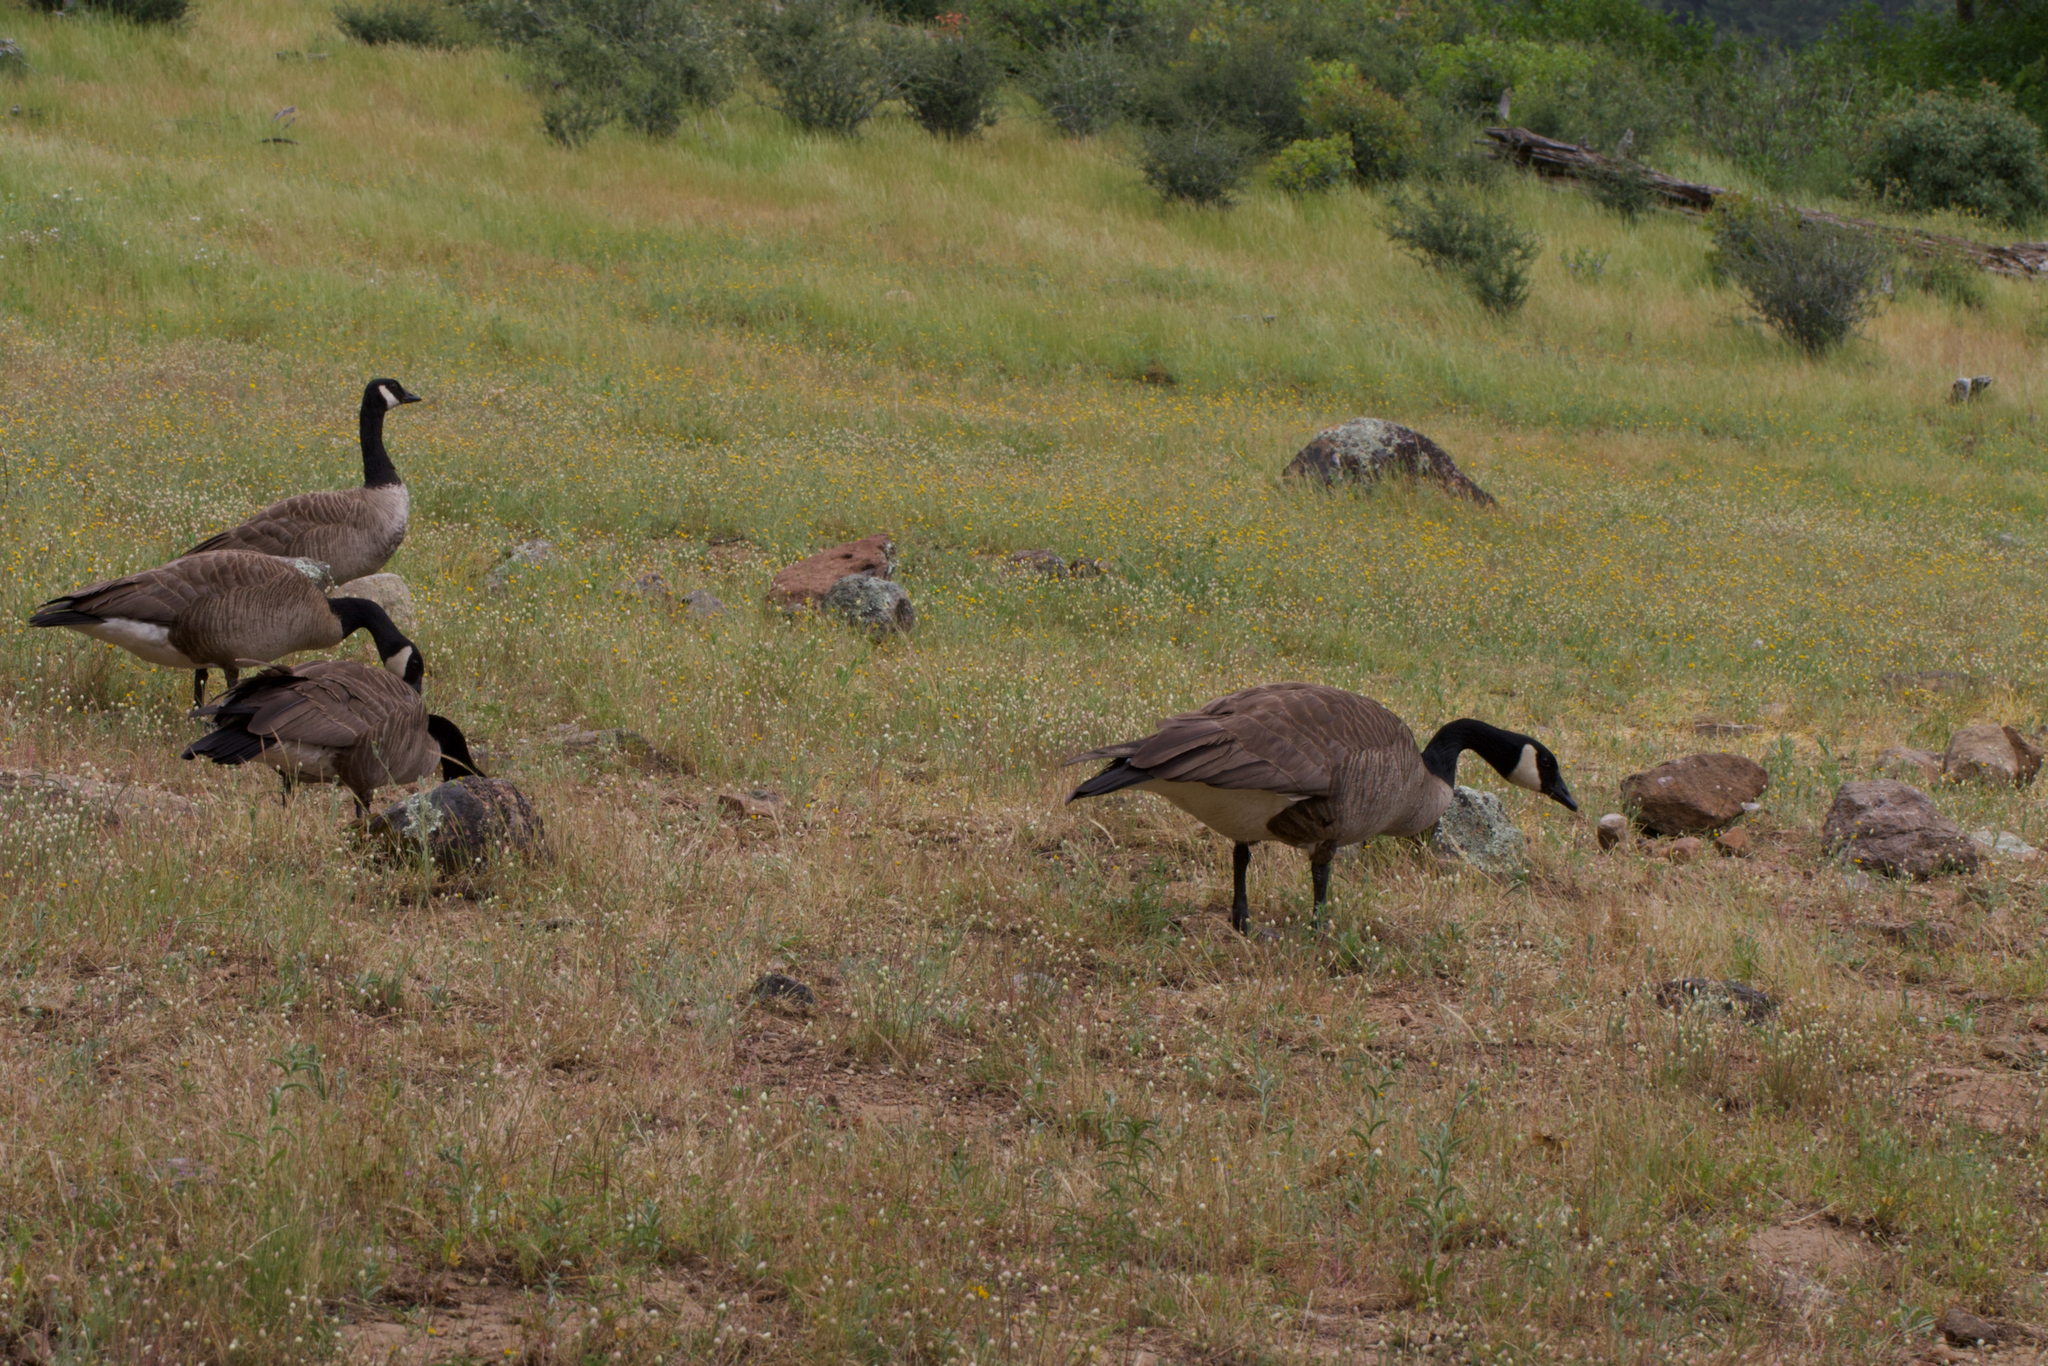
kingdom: Animalia
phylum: Chordata
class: Aves
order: Anseriformes
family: Anatidae
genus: Branta
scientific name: Branta canadensis
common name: Canada goose
